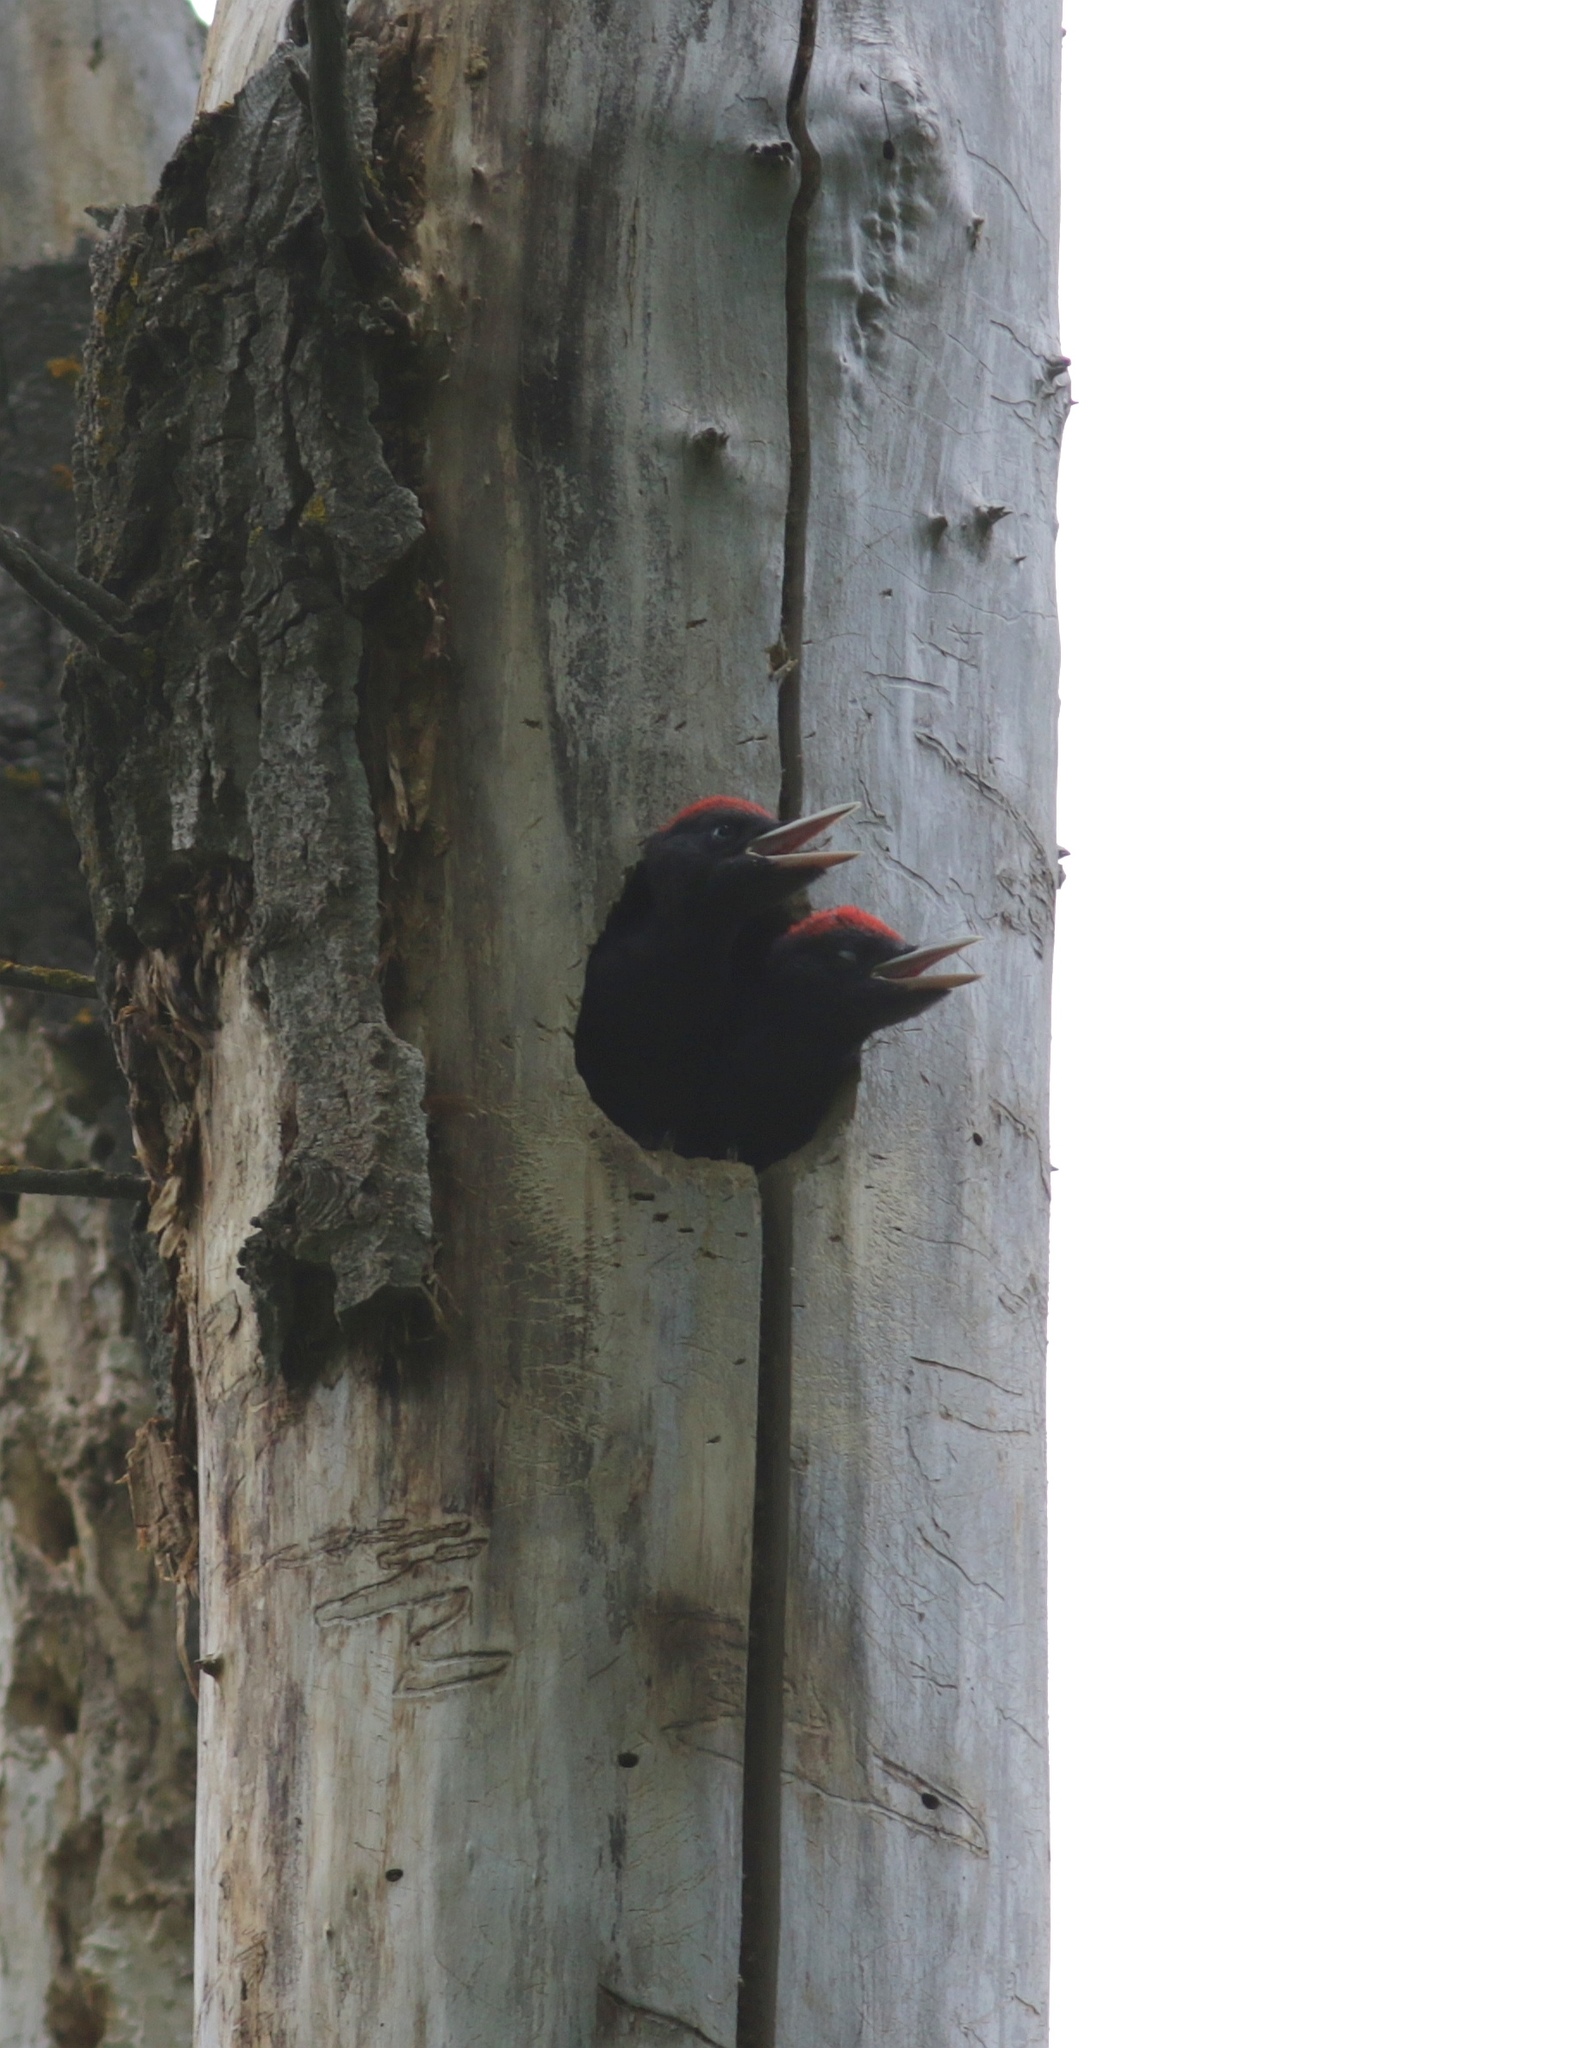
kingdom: Animalia
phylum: Chordata
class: Aves
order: Piciformes
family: Picidae
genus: Dryocopus
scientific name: Dryocopus martius
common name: Black woodpecker
